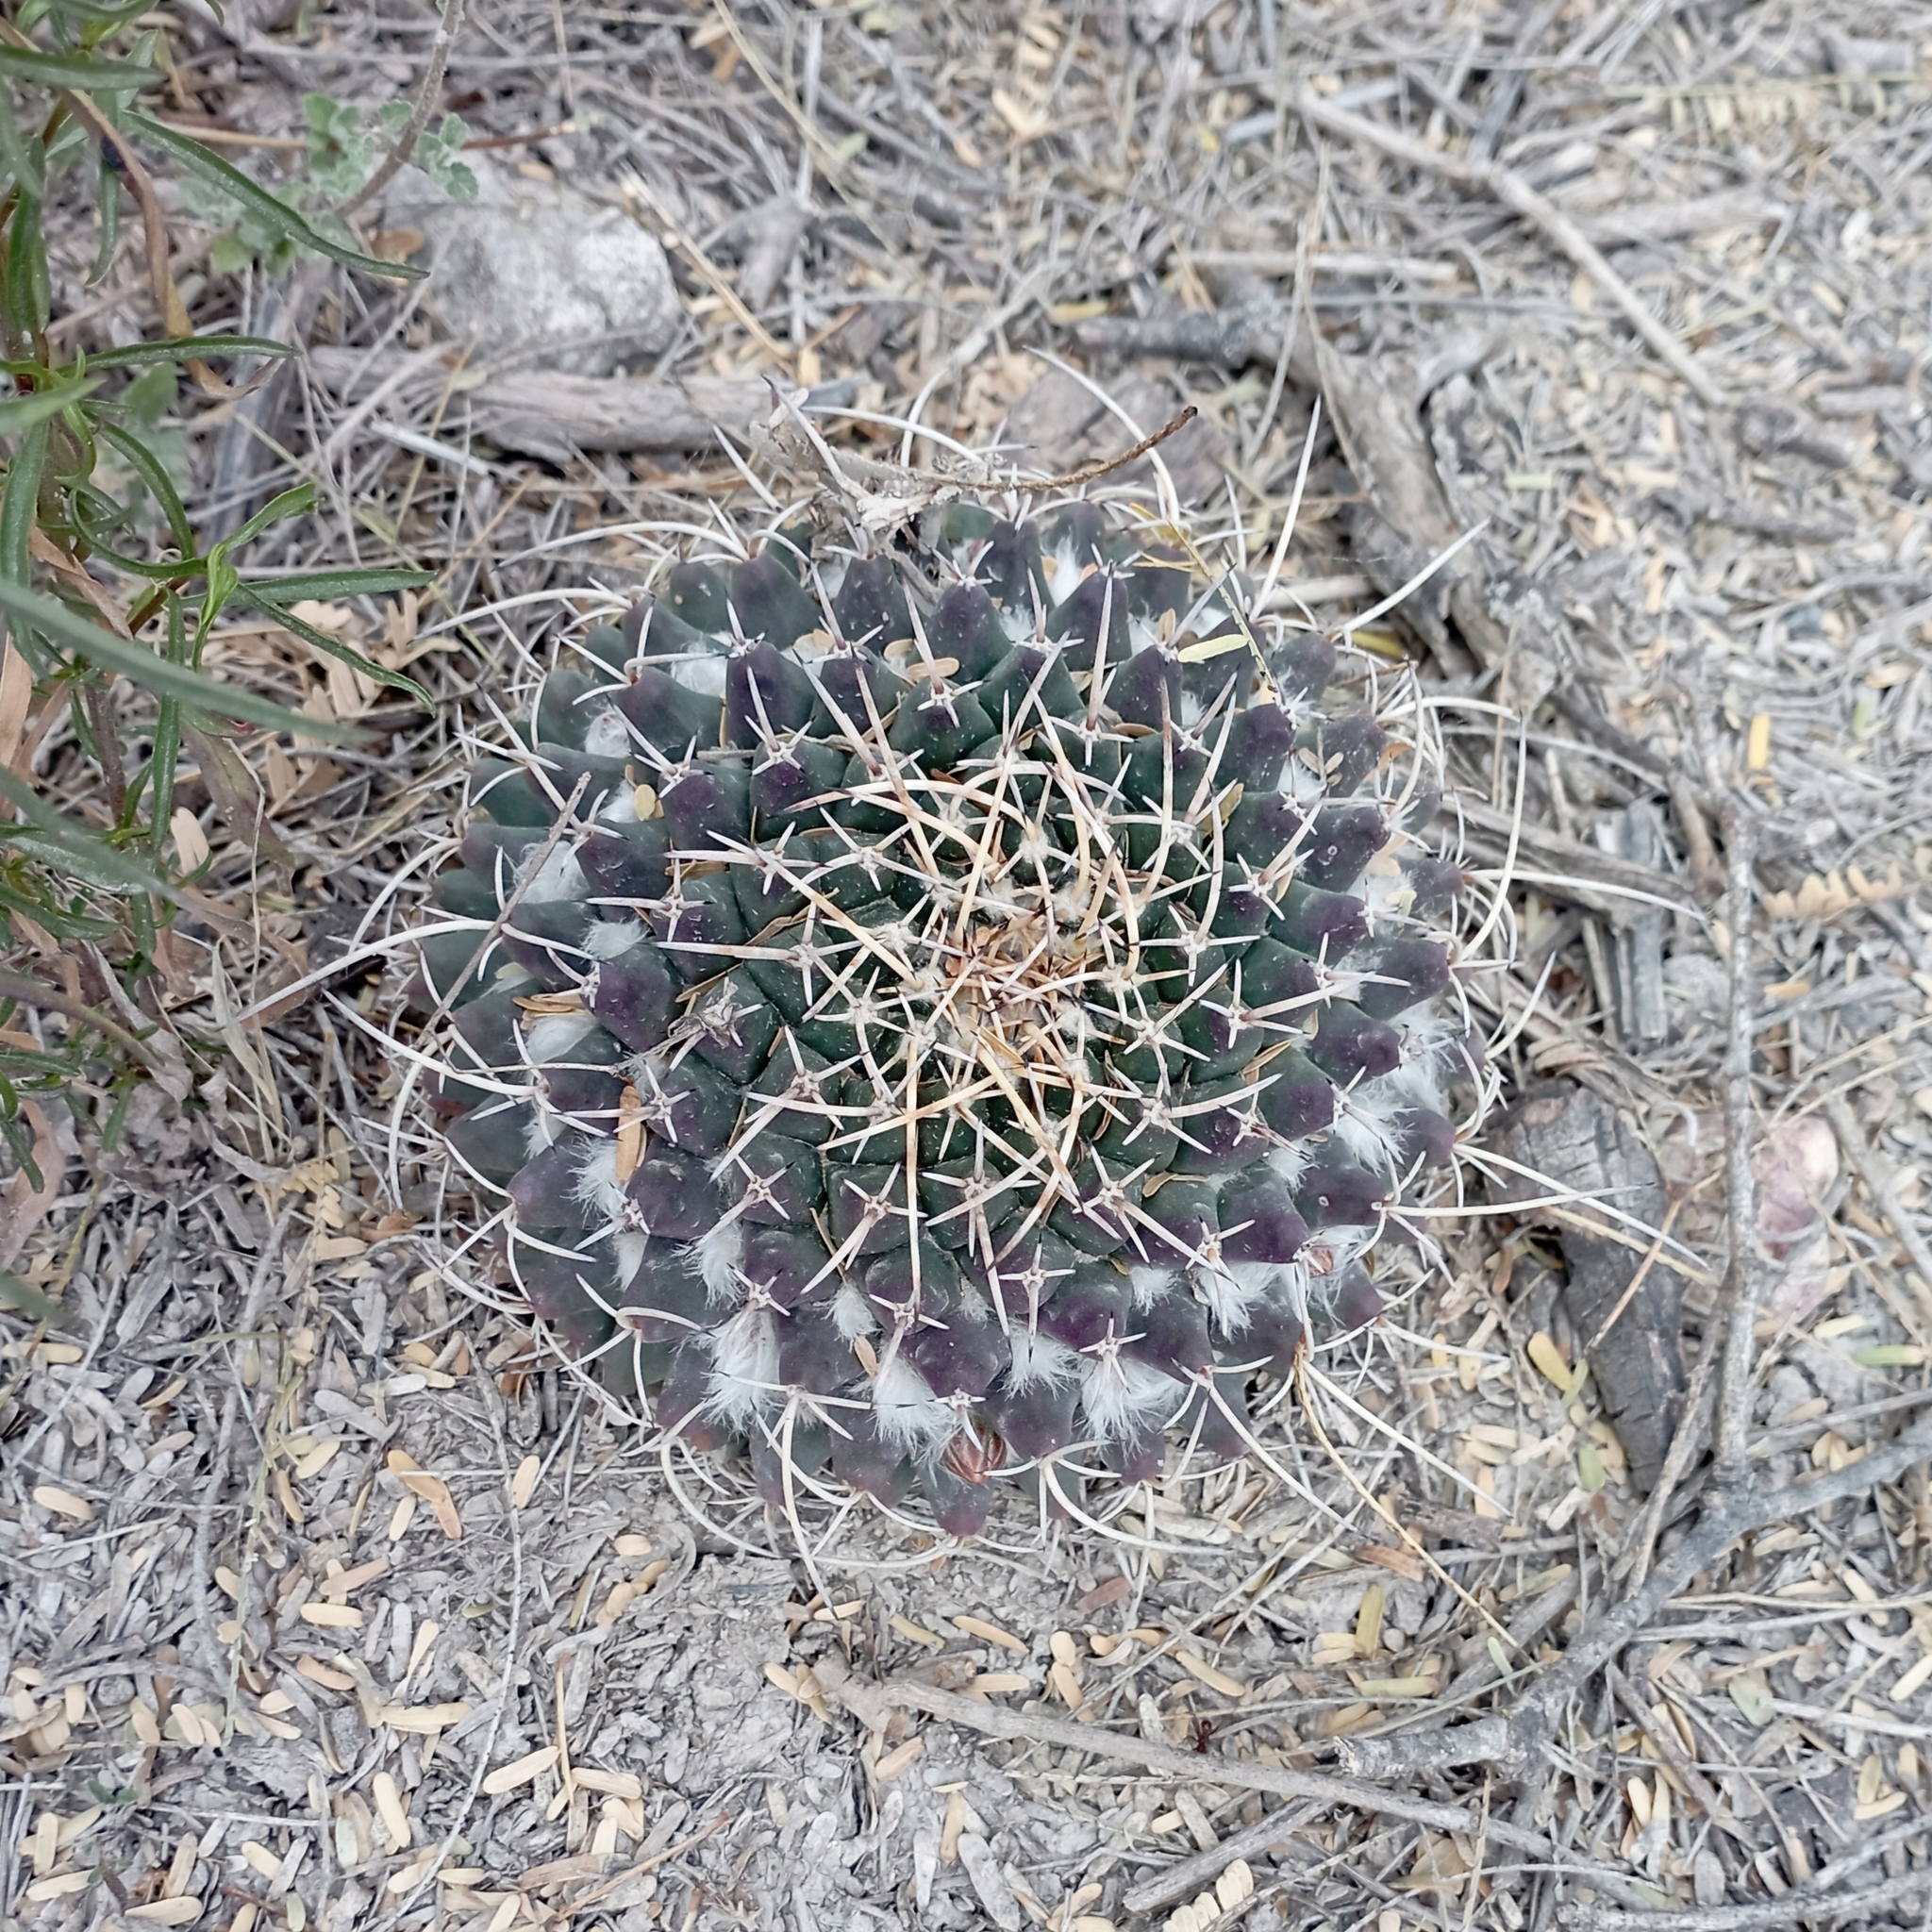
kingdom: Plantae
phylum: Tracheophyta
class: Magnoliopsida
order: Caryophyllales
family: Cactaceae
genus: Mammillaria
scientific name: Mammillaria magnimamma
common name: Mexican pincushion
